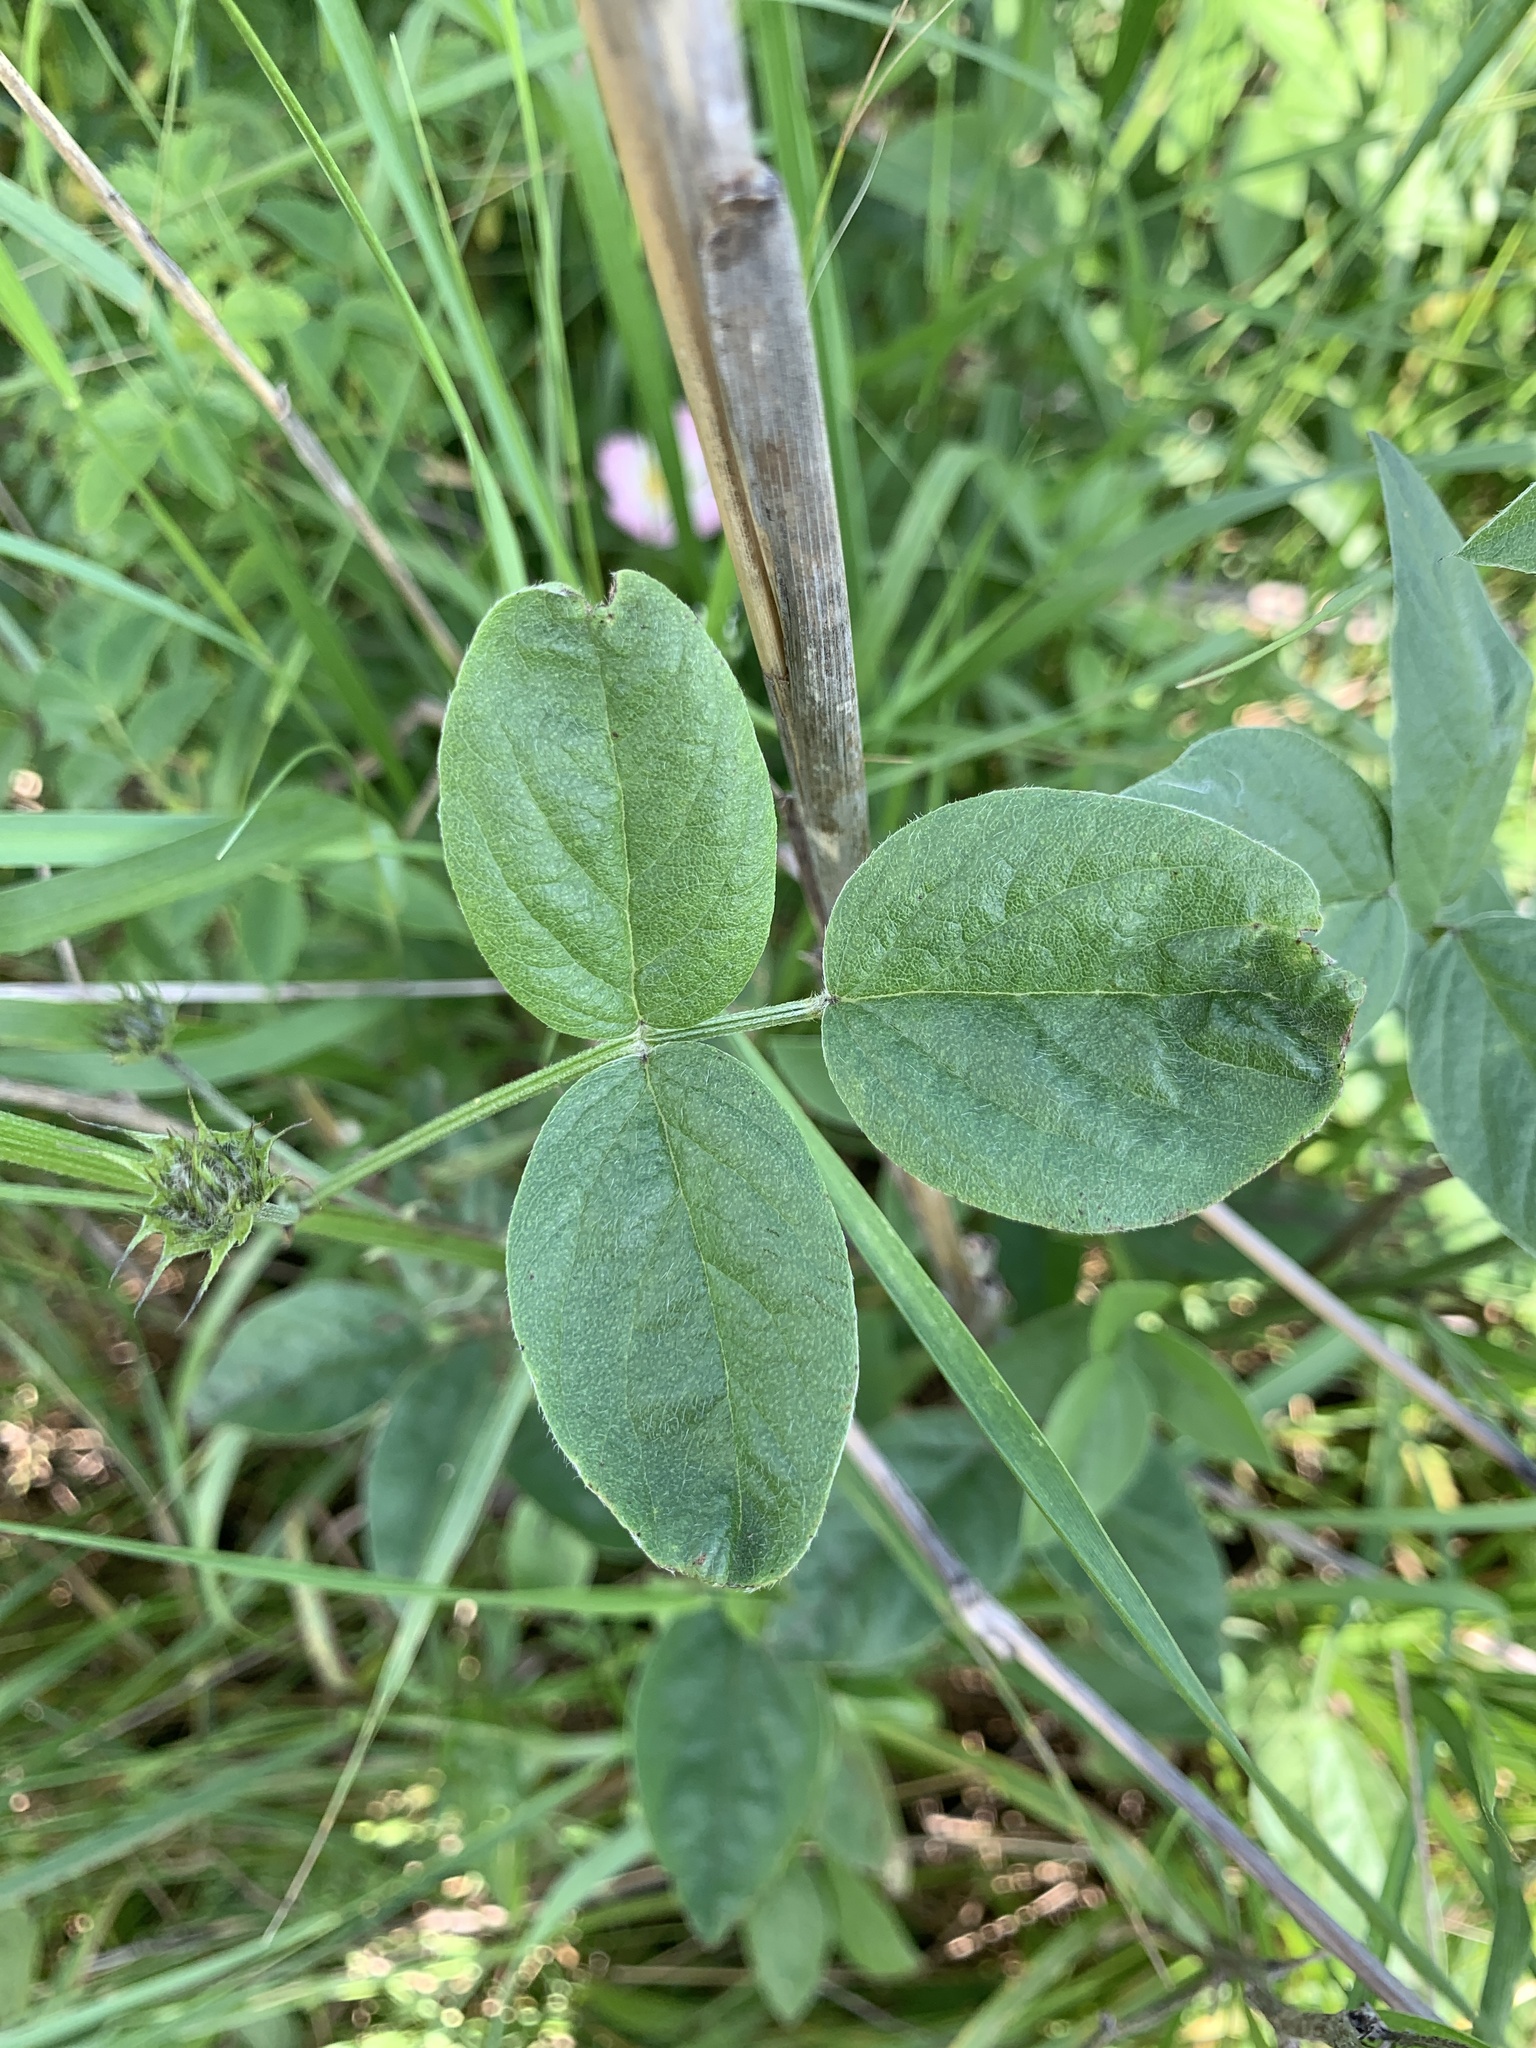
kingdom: Plantae
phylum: Tracheophyta
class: Magnoliopsida
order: Fabales
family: Fabaceae
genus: Bituminaria
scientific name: Bituminaria bituminosa
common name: Arabian pea
